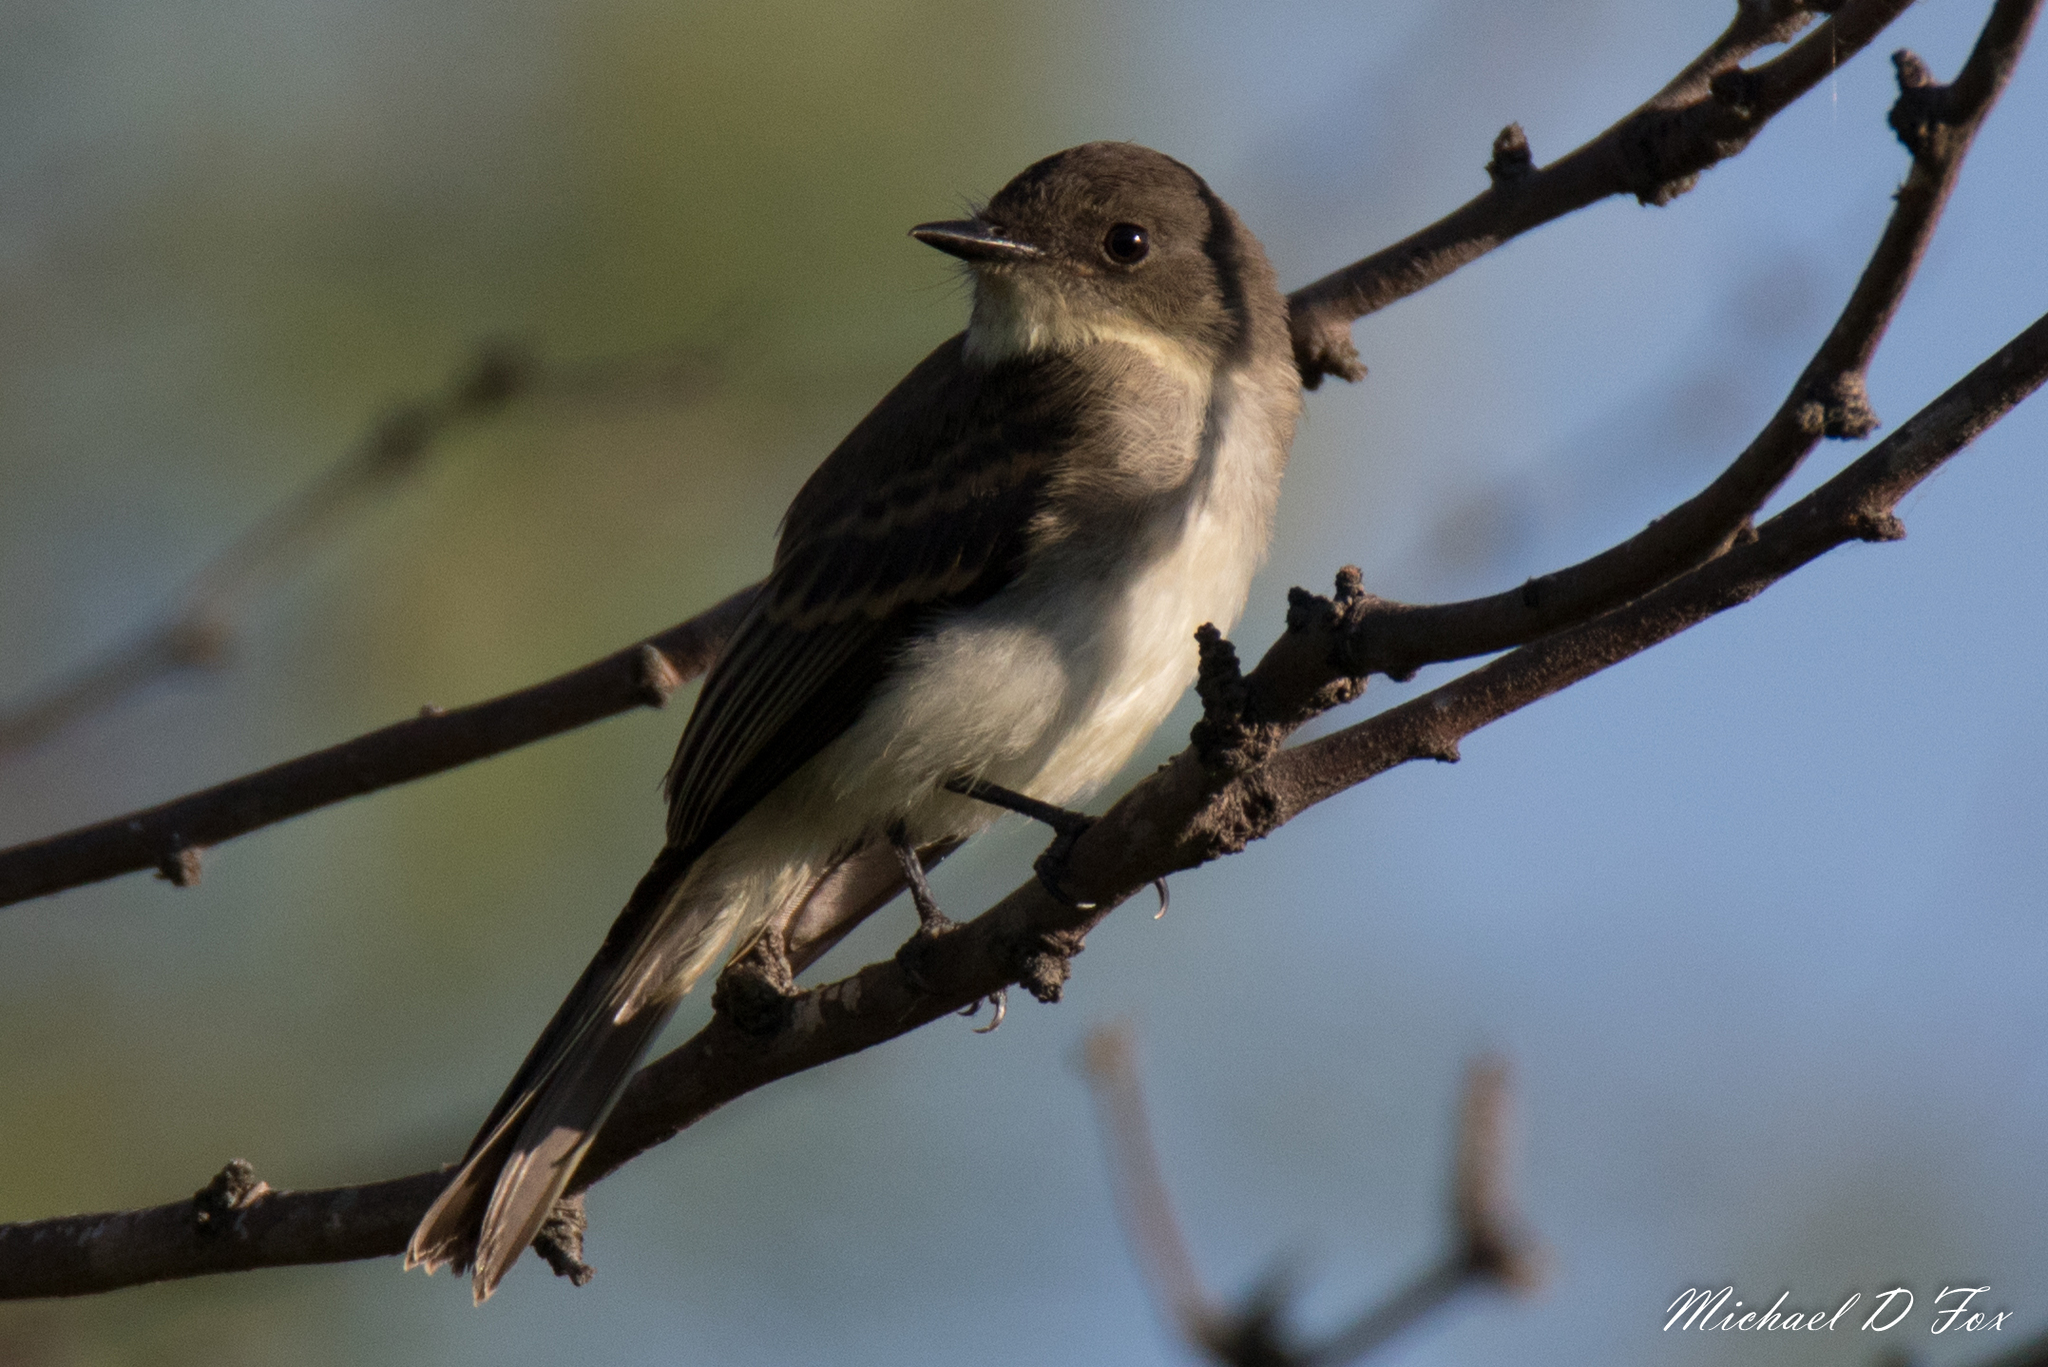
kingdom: Animalia
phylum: Chordata
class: Aves
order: Passeriformes
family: Tyrannidae
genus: Sayornis
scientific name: Sayornis phoebe
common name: Eastern phoebe
